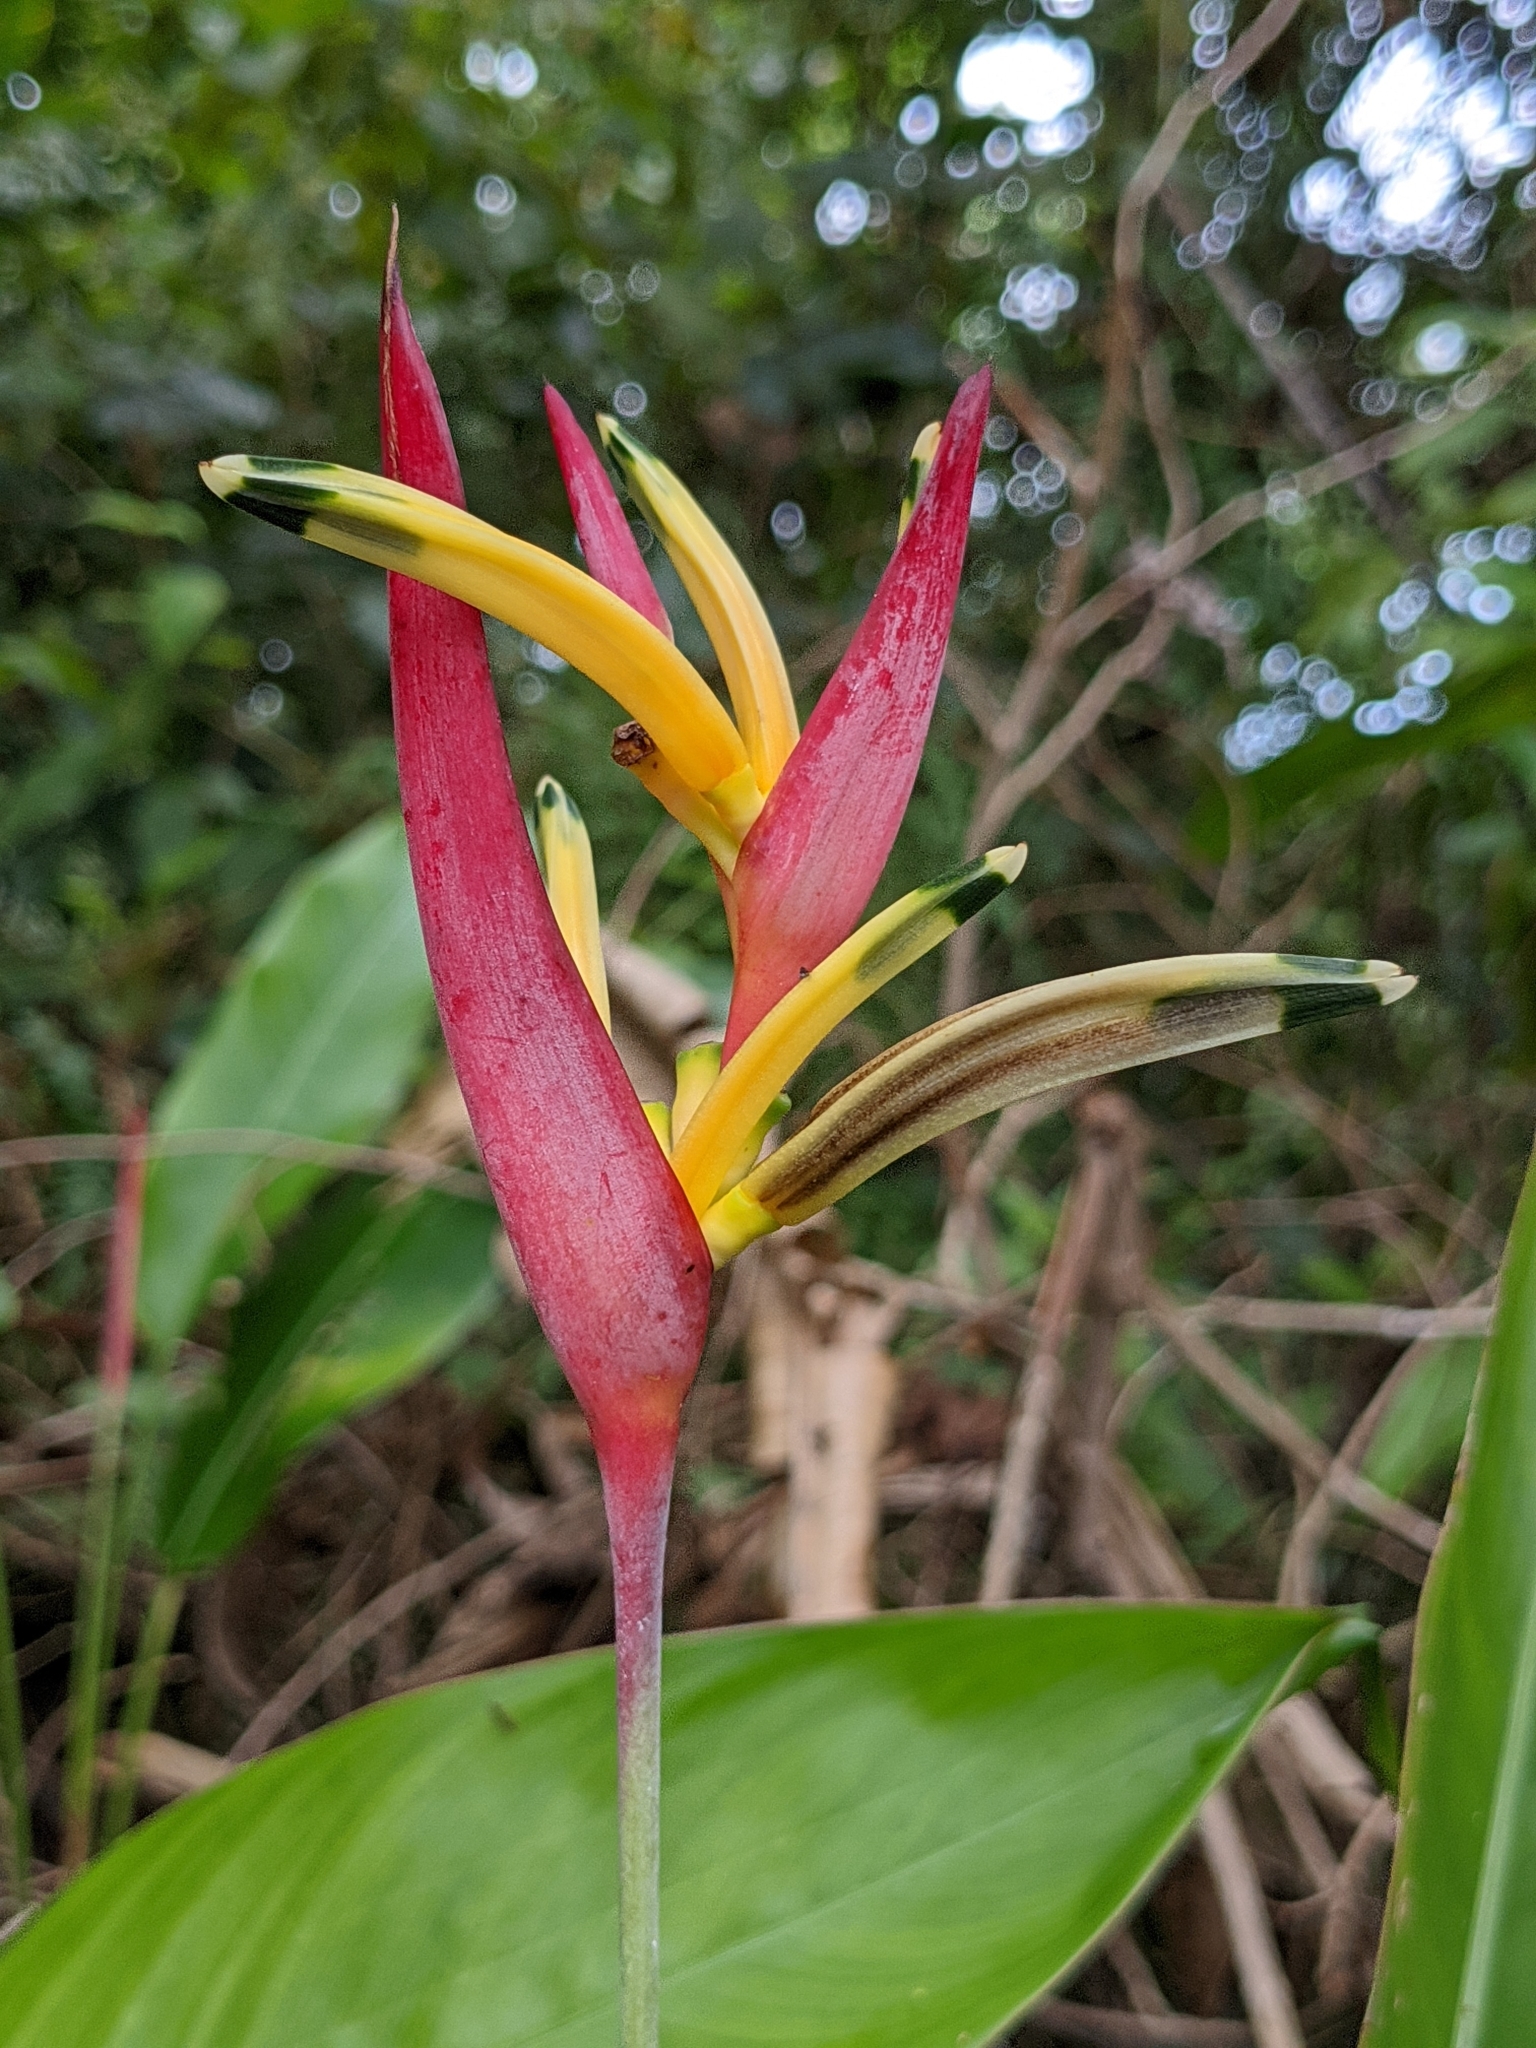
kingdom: Plantae
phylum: Tracheophyta
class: Liliopsida
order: Zingiberales
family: Heliconiaceae
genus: Heliconia
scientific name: Heliconia psittacorum
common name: Parrot's-flower
